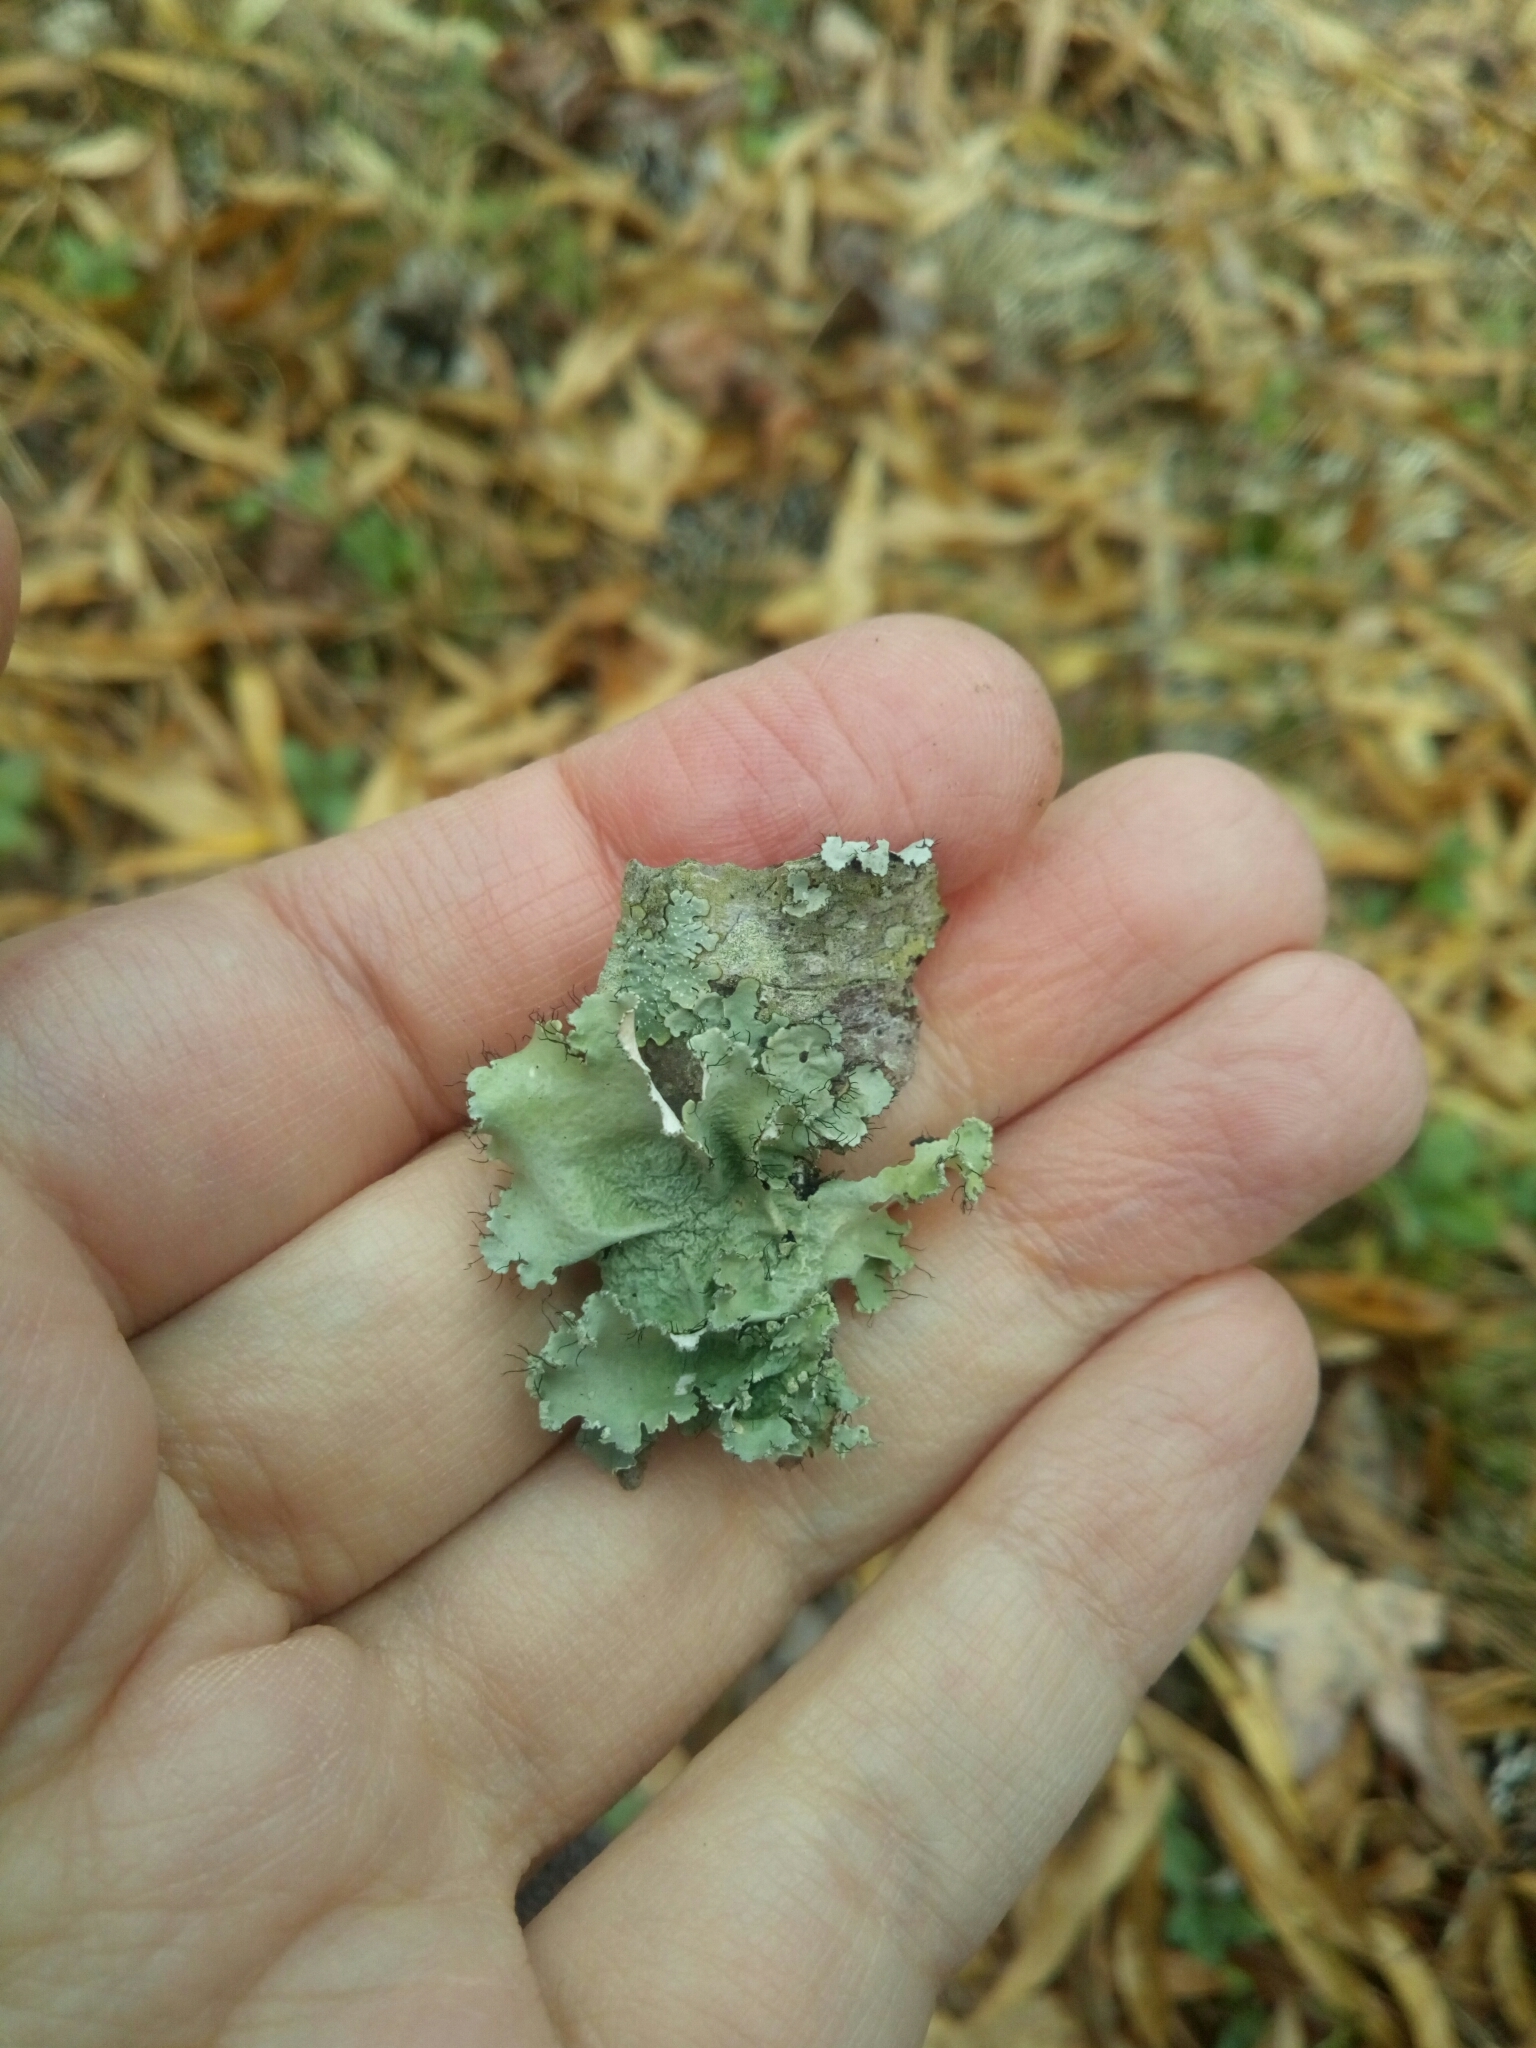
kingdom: Fungi
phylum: Ascomycota
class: Lecanoromycetes
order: Lecanorales
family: Parmeliaceae
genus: Parmotrema
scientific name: Parmotrema hypotropum
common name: Powdered ruffle lichen
